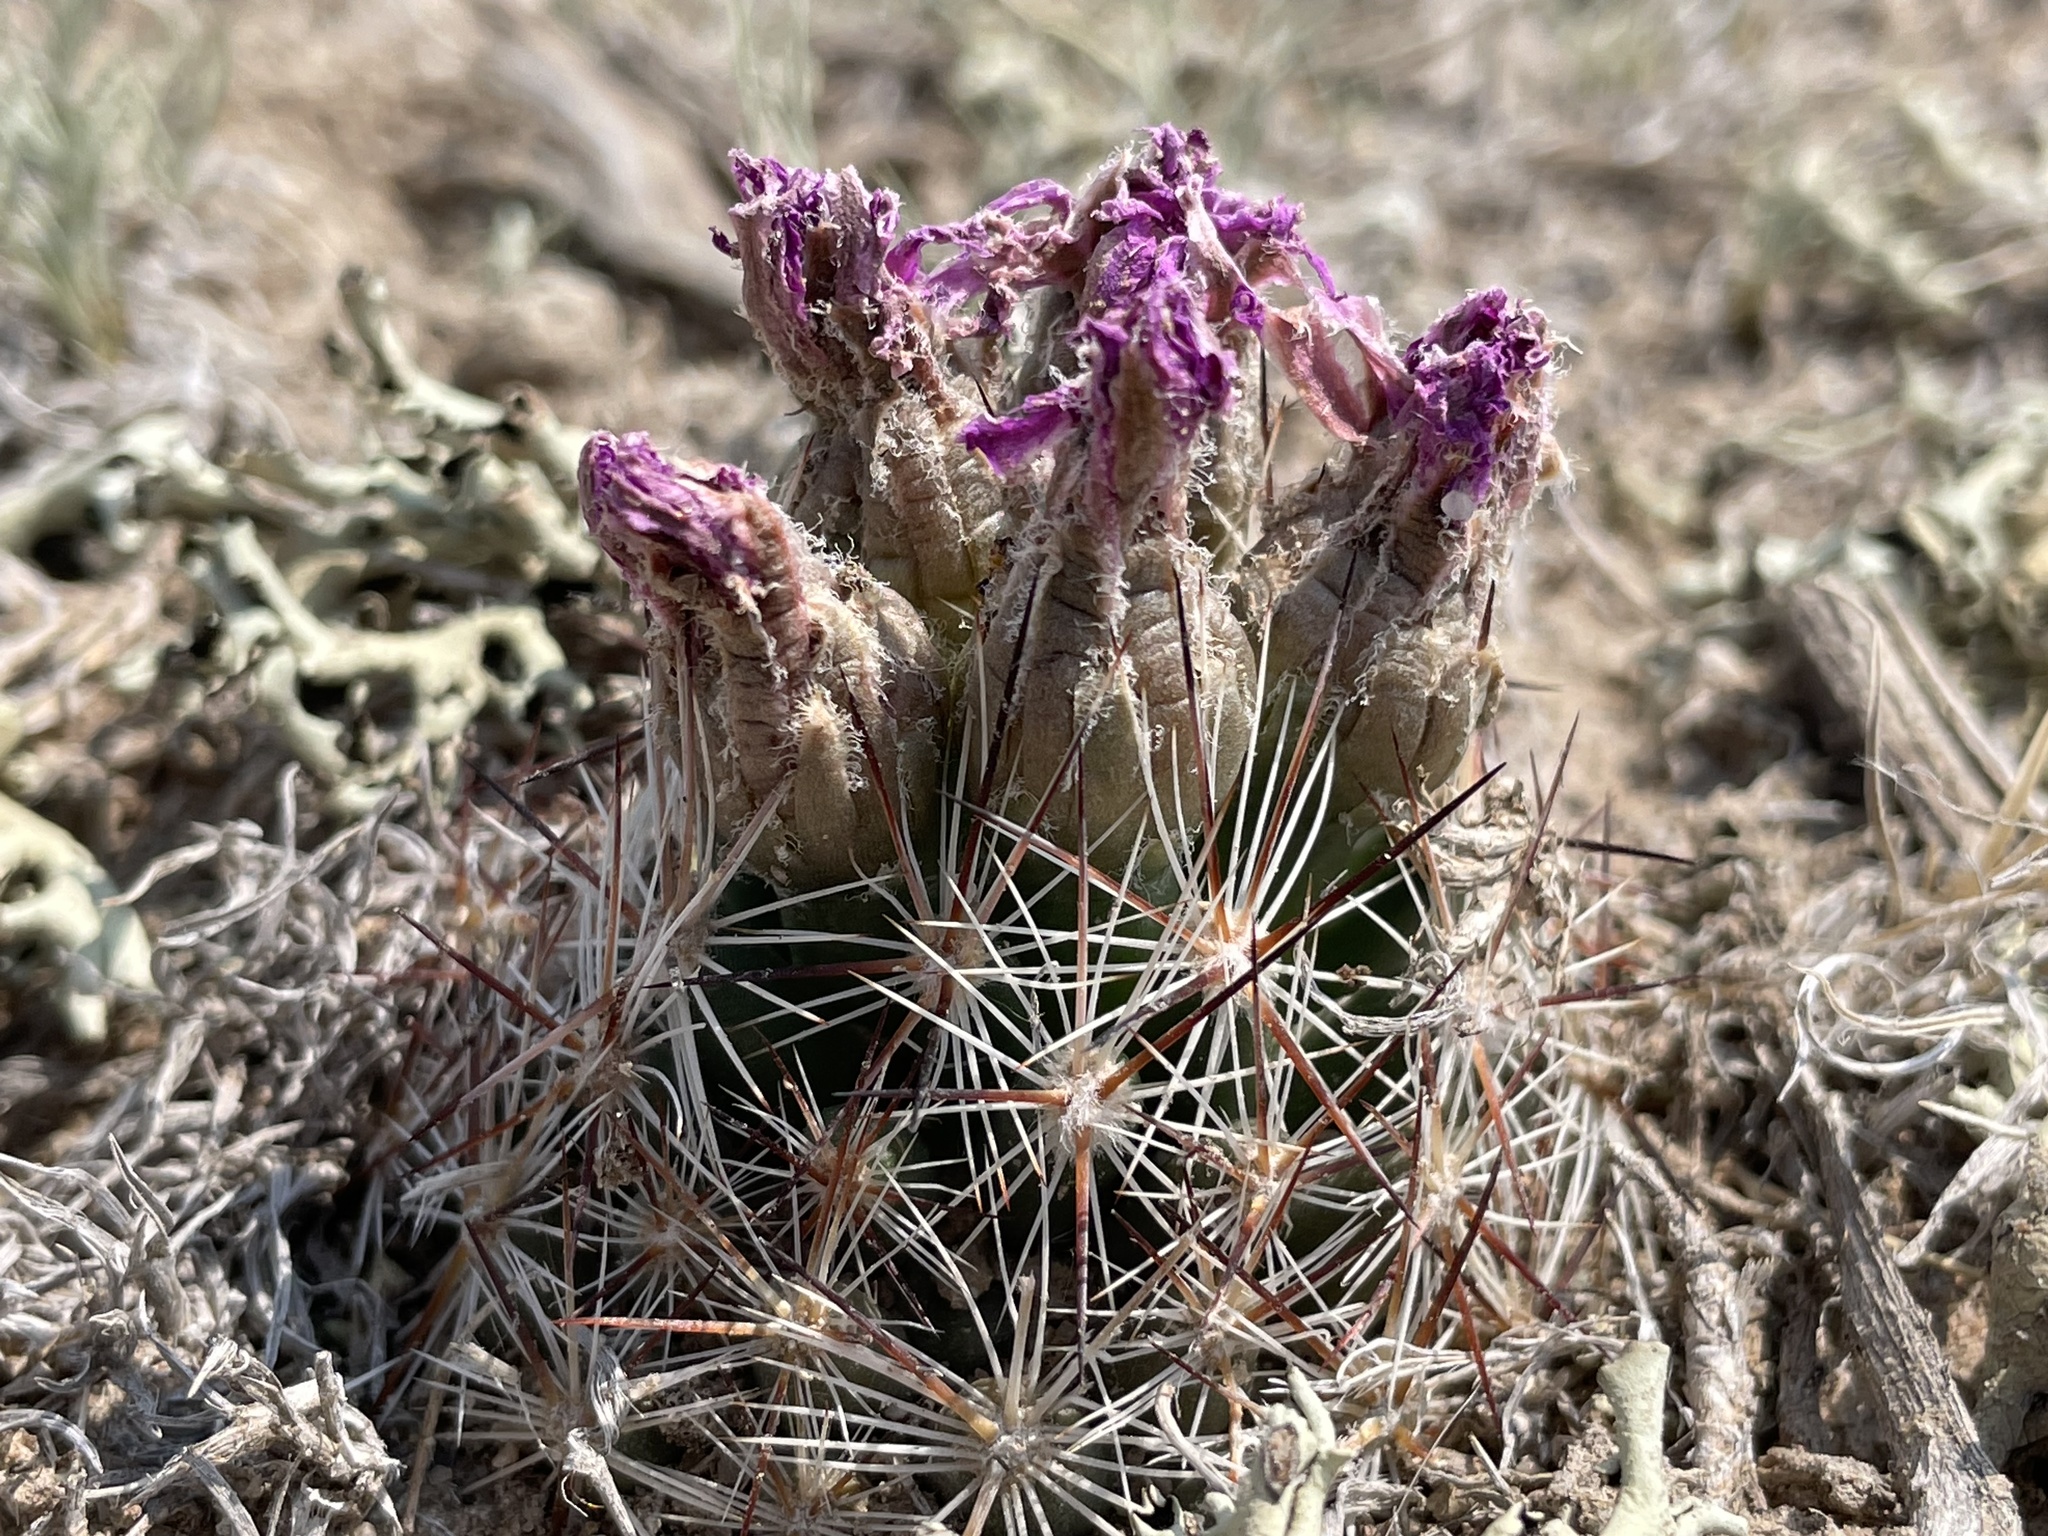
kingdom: Plantae
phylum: Tracheophyta
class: Magnoliopsida
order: Caryophyllales
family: Cactaceae
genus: Pelecyphora
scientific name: Pelecyphora vivipara
